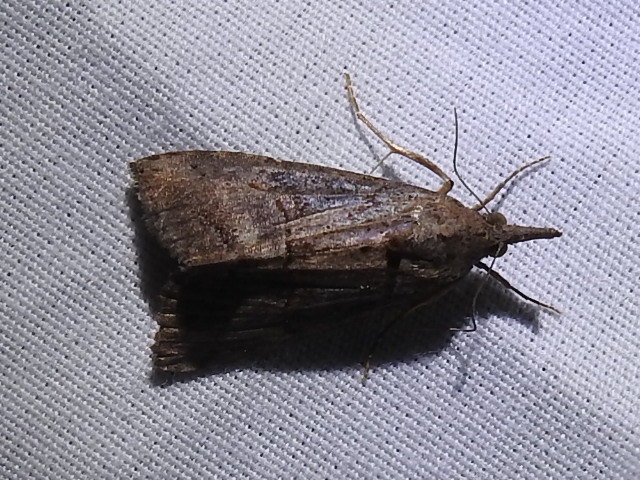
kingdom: Animalia
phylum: Arthropoda
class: Insecta
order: Lepidoptera
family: Erebidae
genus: Hypena
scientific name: Hypena scabra
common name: Green cloverworm
